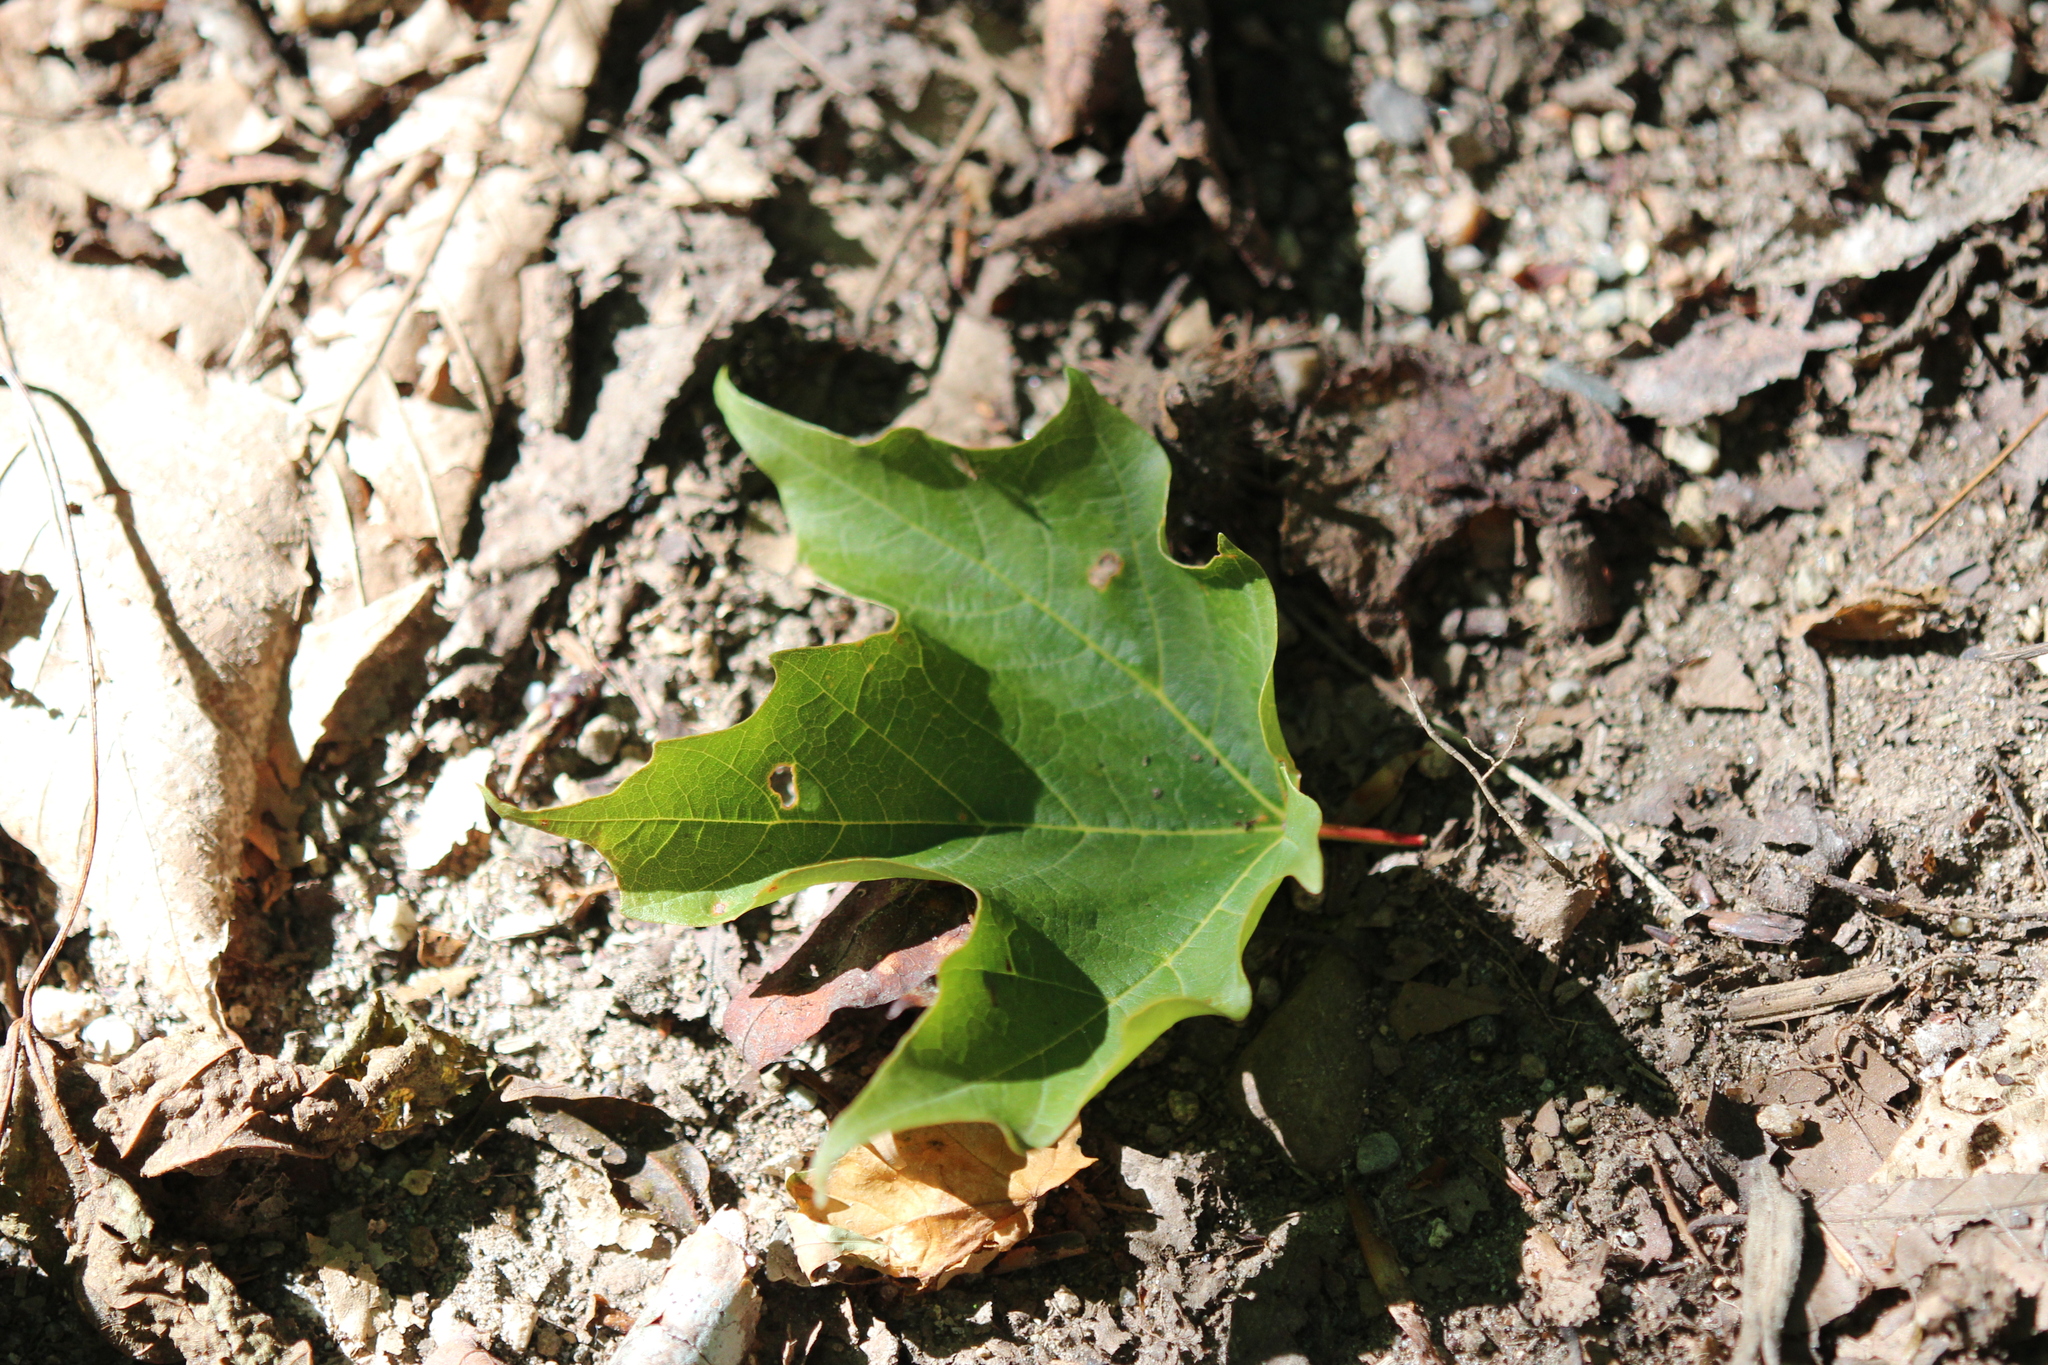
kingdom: Plantae
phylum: Tracheophyta
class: Magnoliopsida
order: Sapindales
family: Sapindaceae
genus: Acer
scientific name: Acer saccharum
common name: Sugar maple
